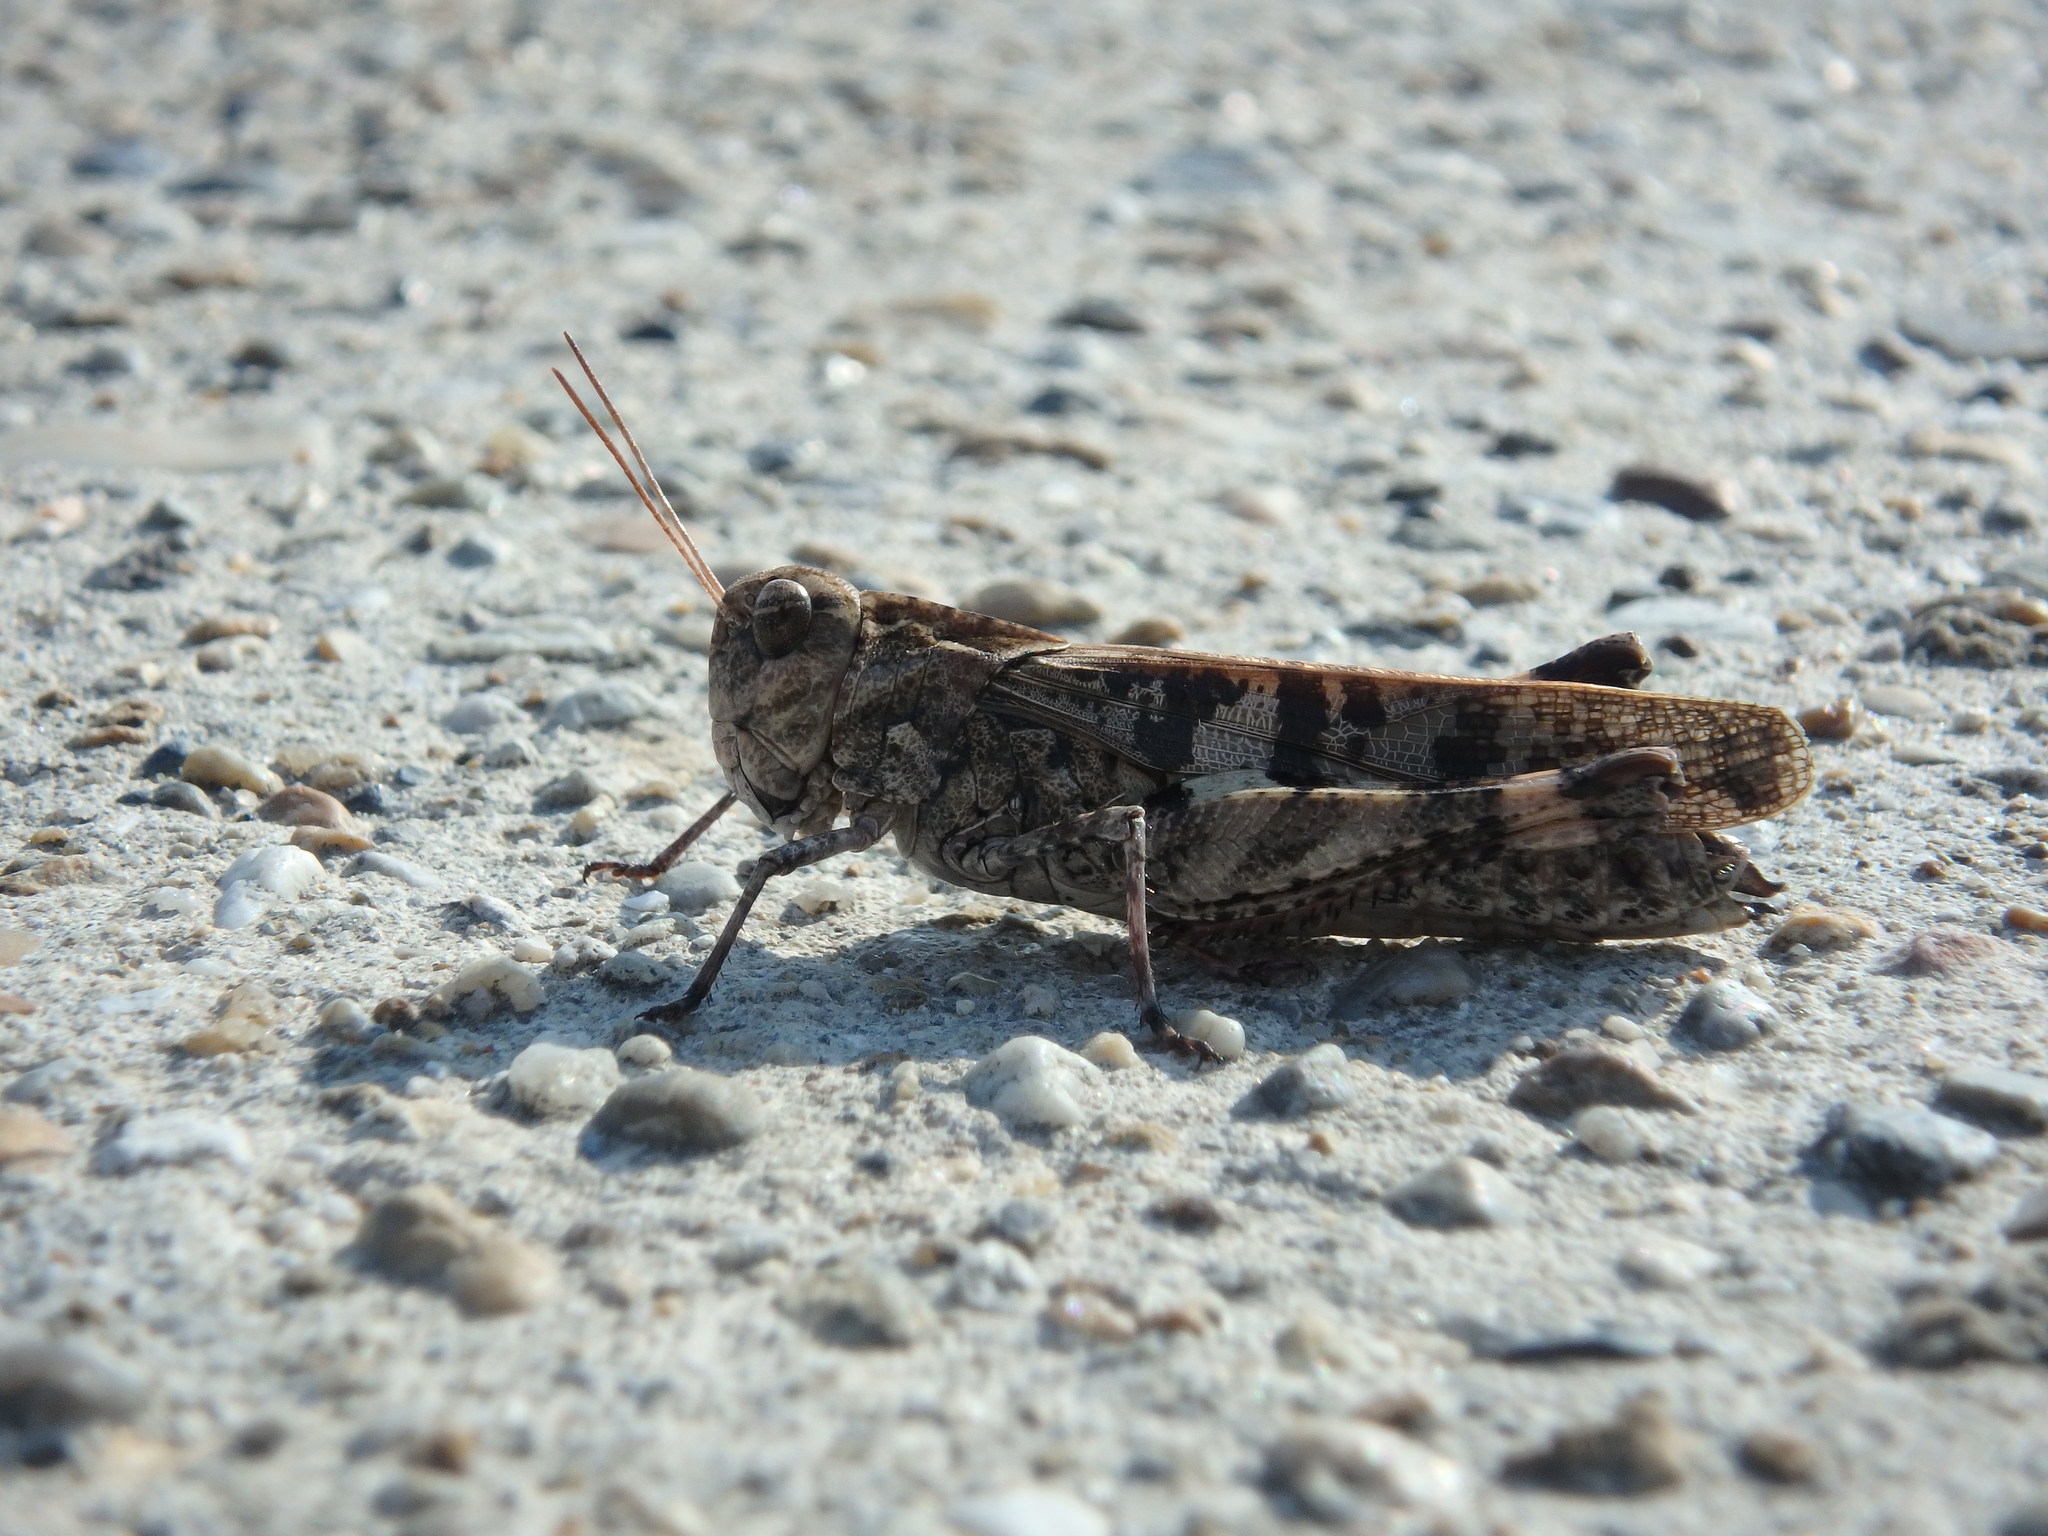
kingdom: Animalia
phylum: Arthropoda
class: Insecta
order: Orthoptera
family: Acrididae
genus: Oedaleus
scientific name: Oedaleus infernalis
